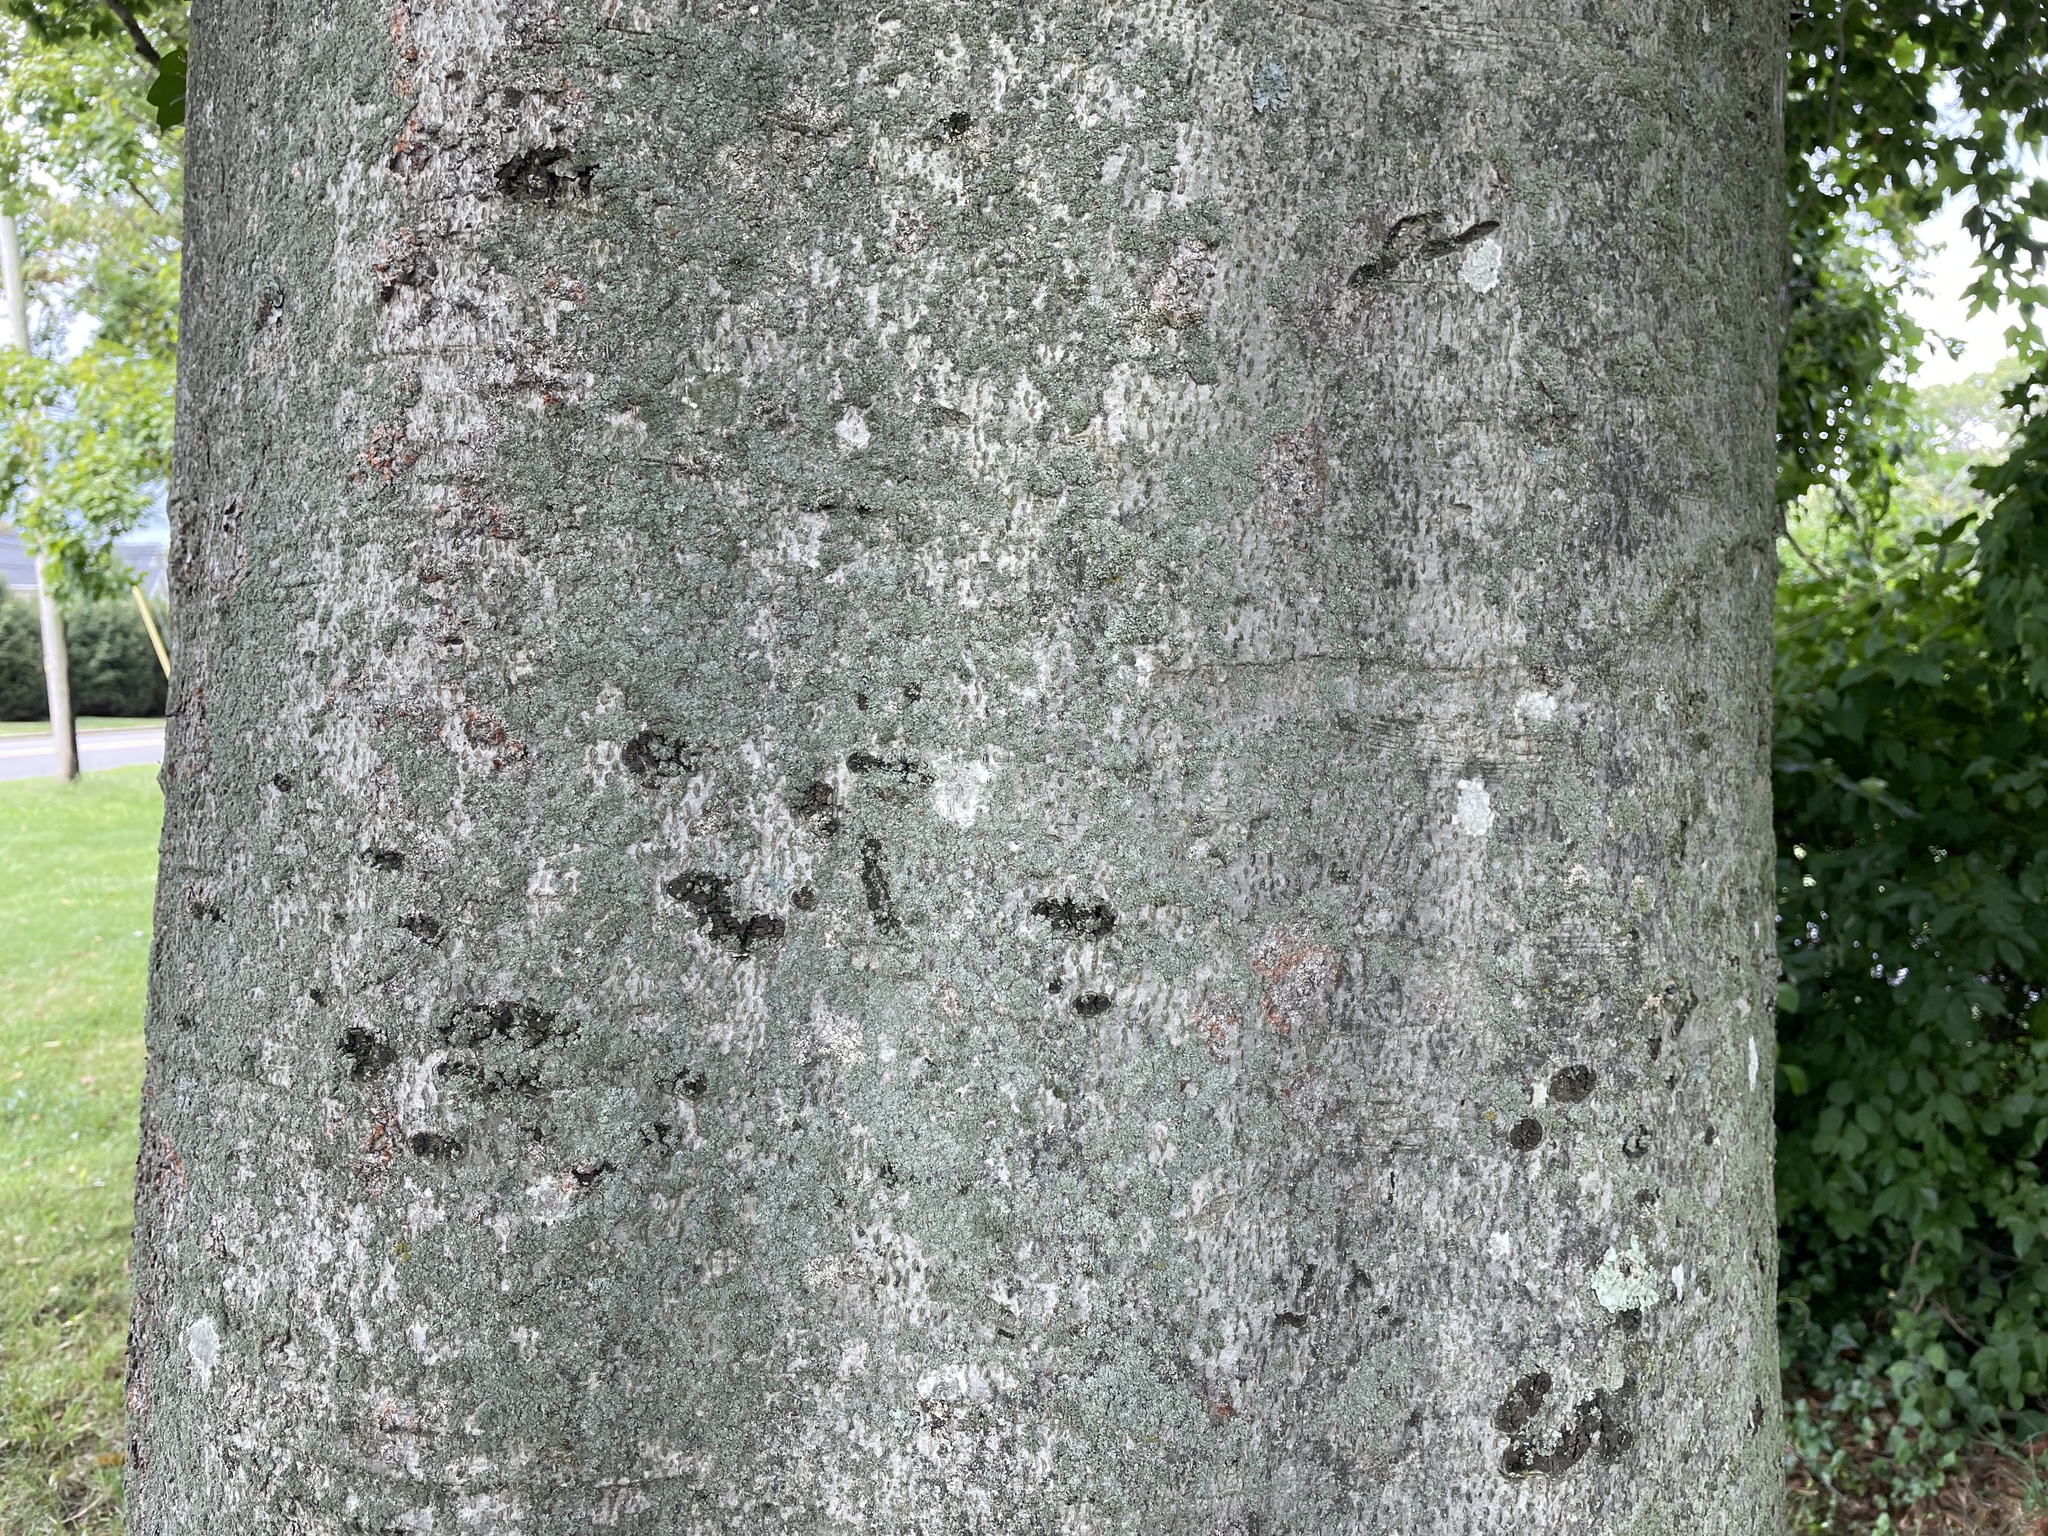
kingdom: Plantae
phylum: Tracheophyta
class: Magnoliopsida
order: Fagales
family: Fagaceae
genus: Fagus
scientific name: Fagus grandifolia
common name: American beech
